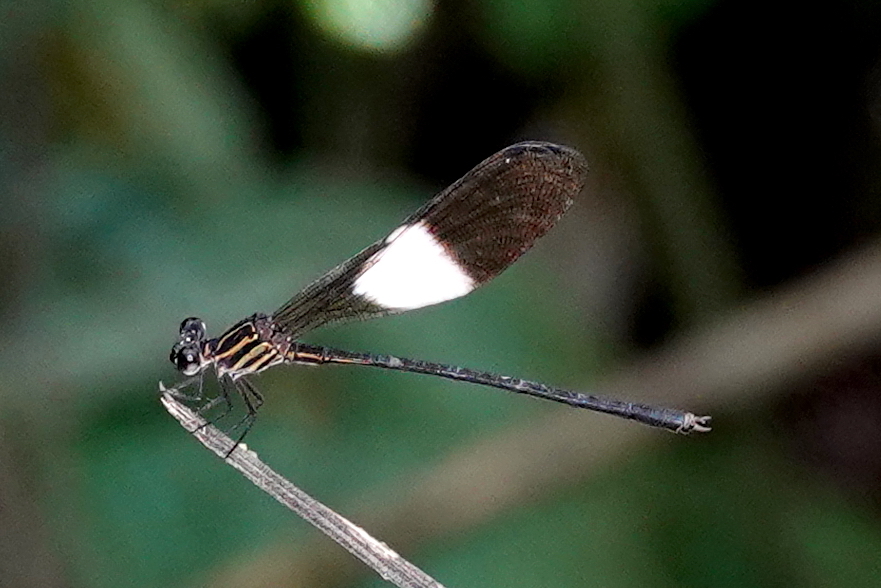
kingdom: Animalia
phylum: Arthropoda
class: Insecta
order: Odonata
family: Polythoridae
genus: Polythore
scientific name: Polythore mutata
